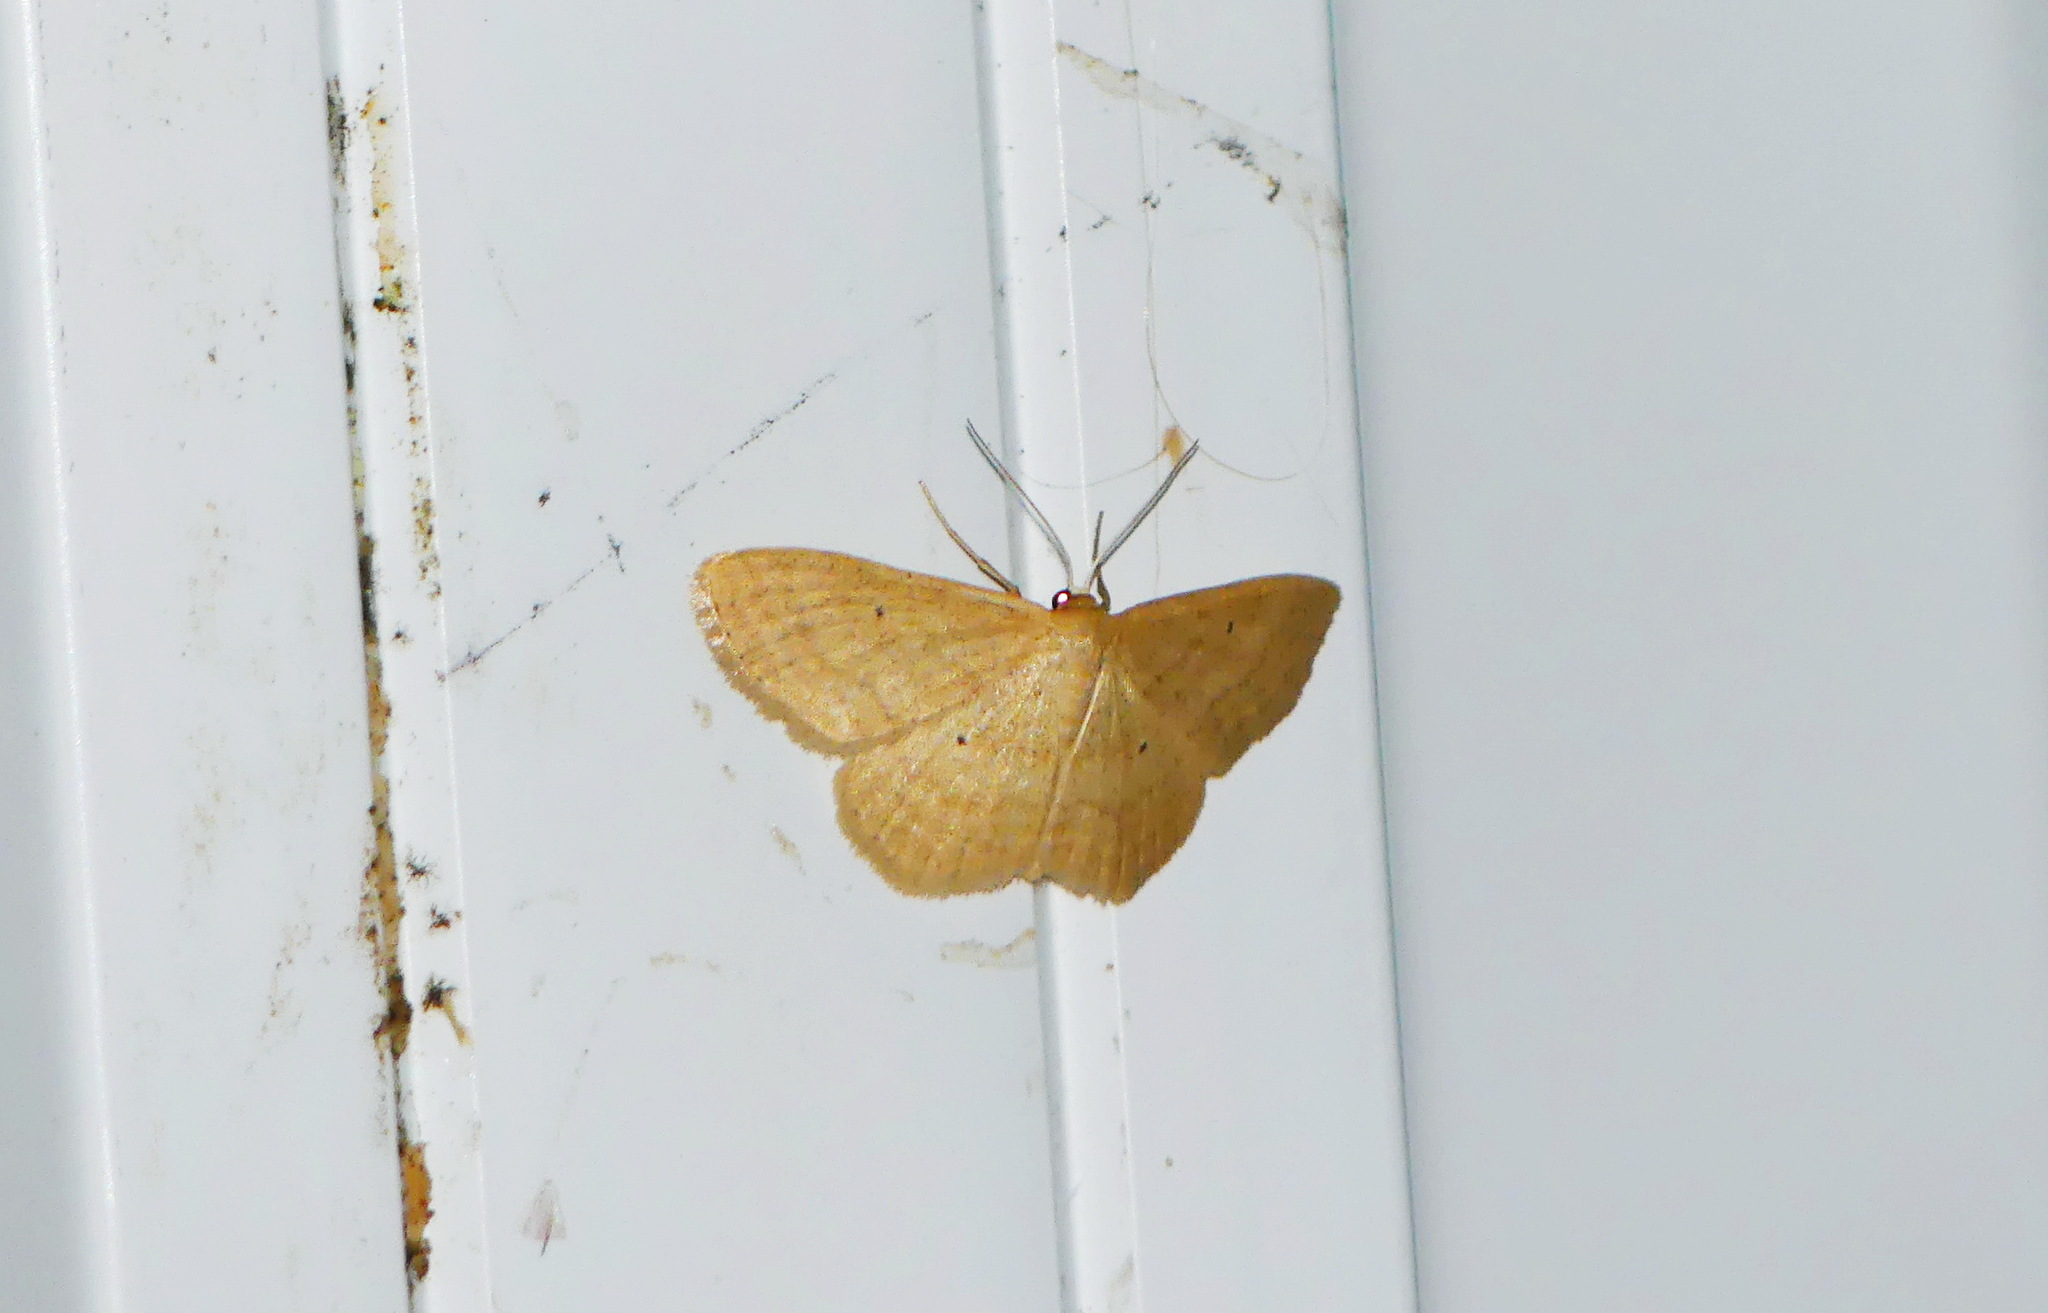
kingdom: Animalia
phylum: Arthropoda
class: Insecta
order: Lepidoptera
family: Geometridae
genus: Scopula
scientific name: Scopula inductata
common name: Soft-lined wave
